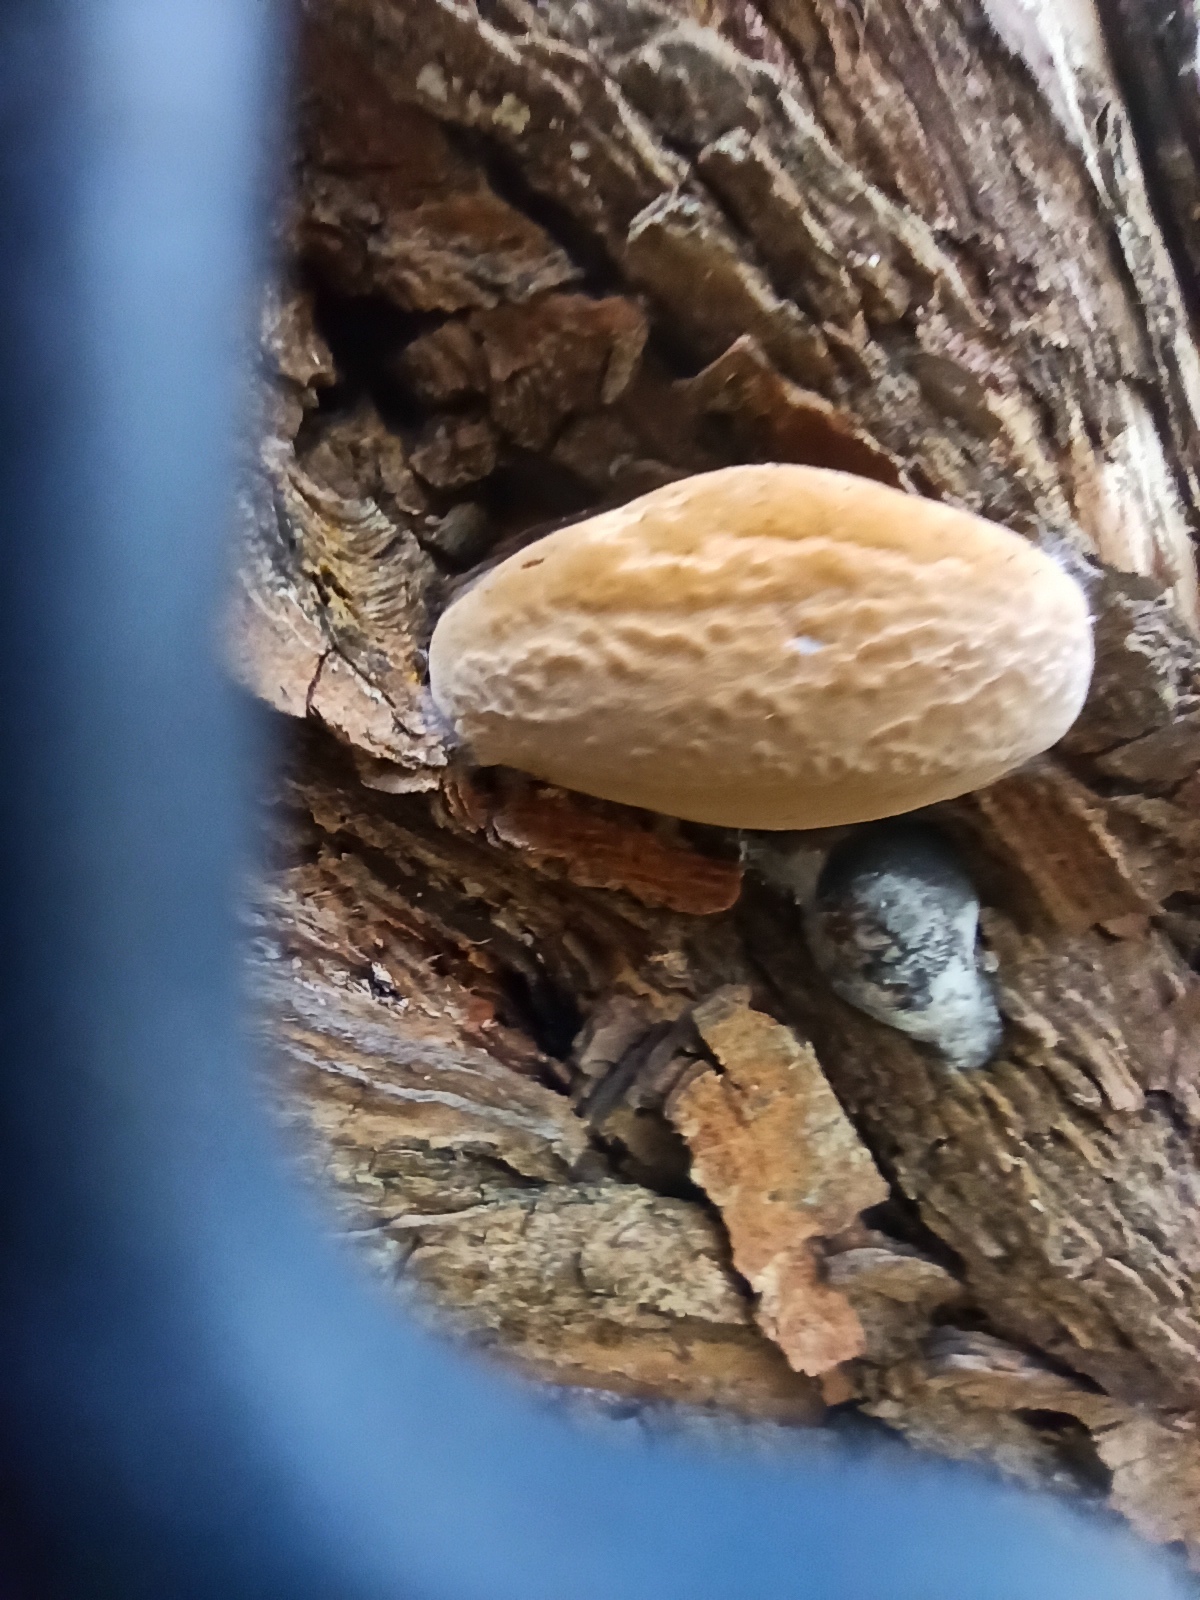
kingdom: Fungi
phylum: Basidiomycota
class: Agaricomycetes
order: Hymenochaetales
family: Hymenochaetaceae
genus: Phellinus
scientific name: Phellinus igniarius
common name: Willow bracket
